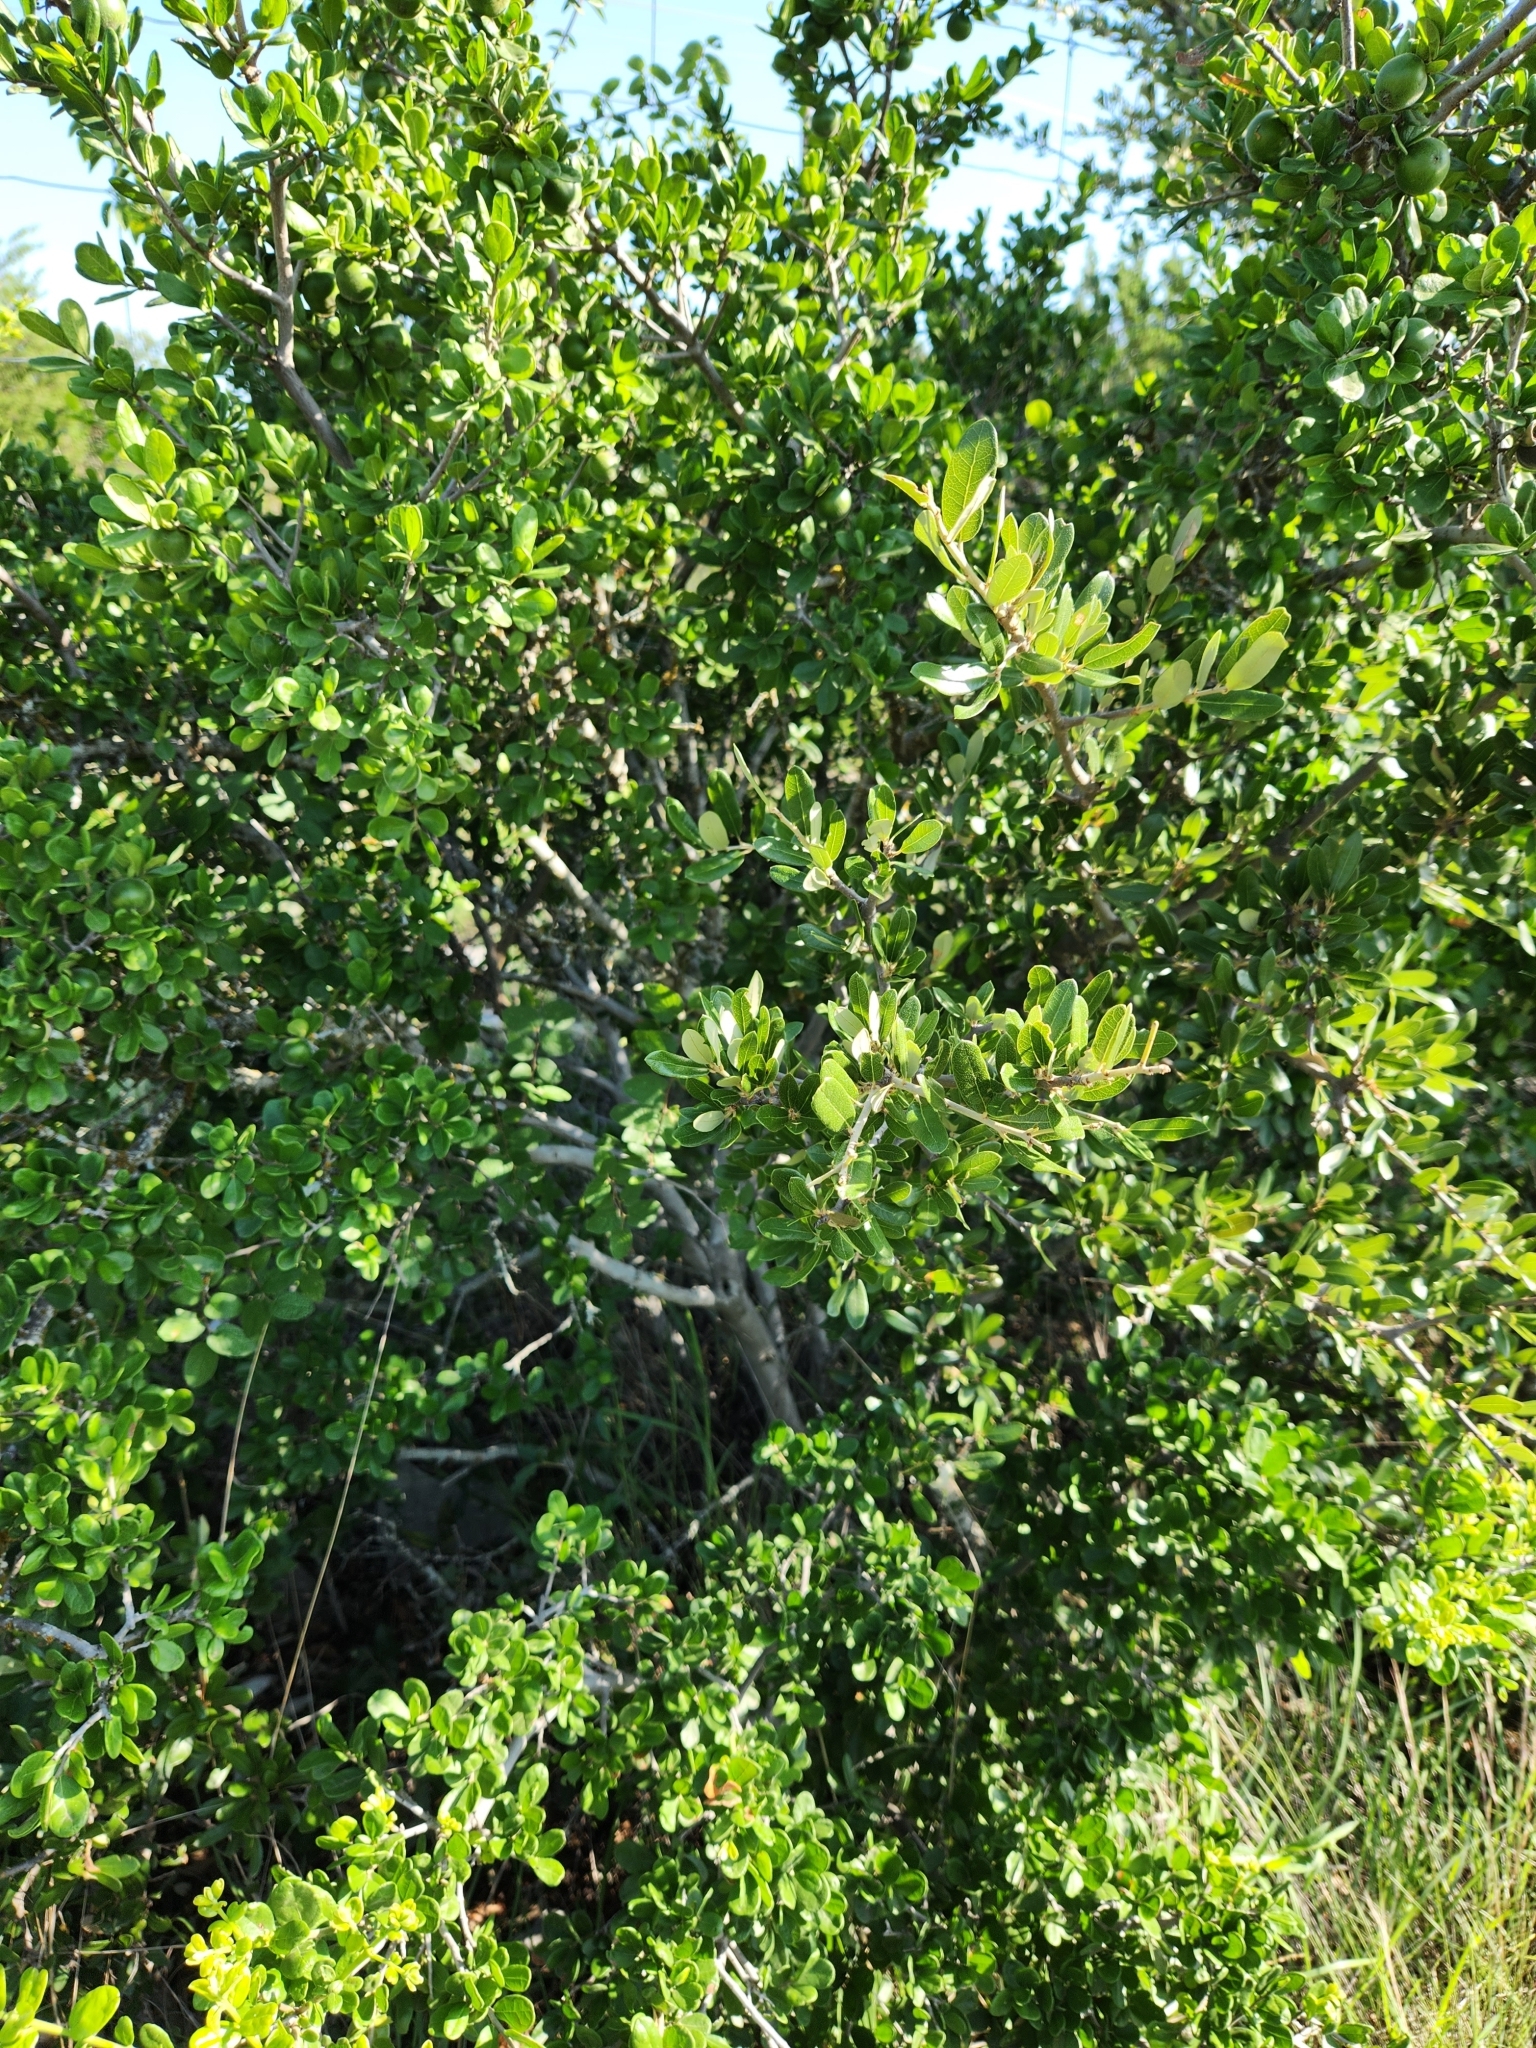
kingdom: Plantae
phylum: Tracheophyta
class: Magnoliopsida
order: Ericales
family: Ebenaceae
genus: Diospyros
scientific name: Diospyros texana
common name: Texas persimmon
